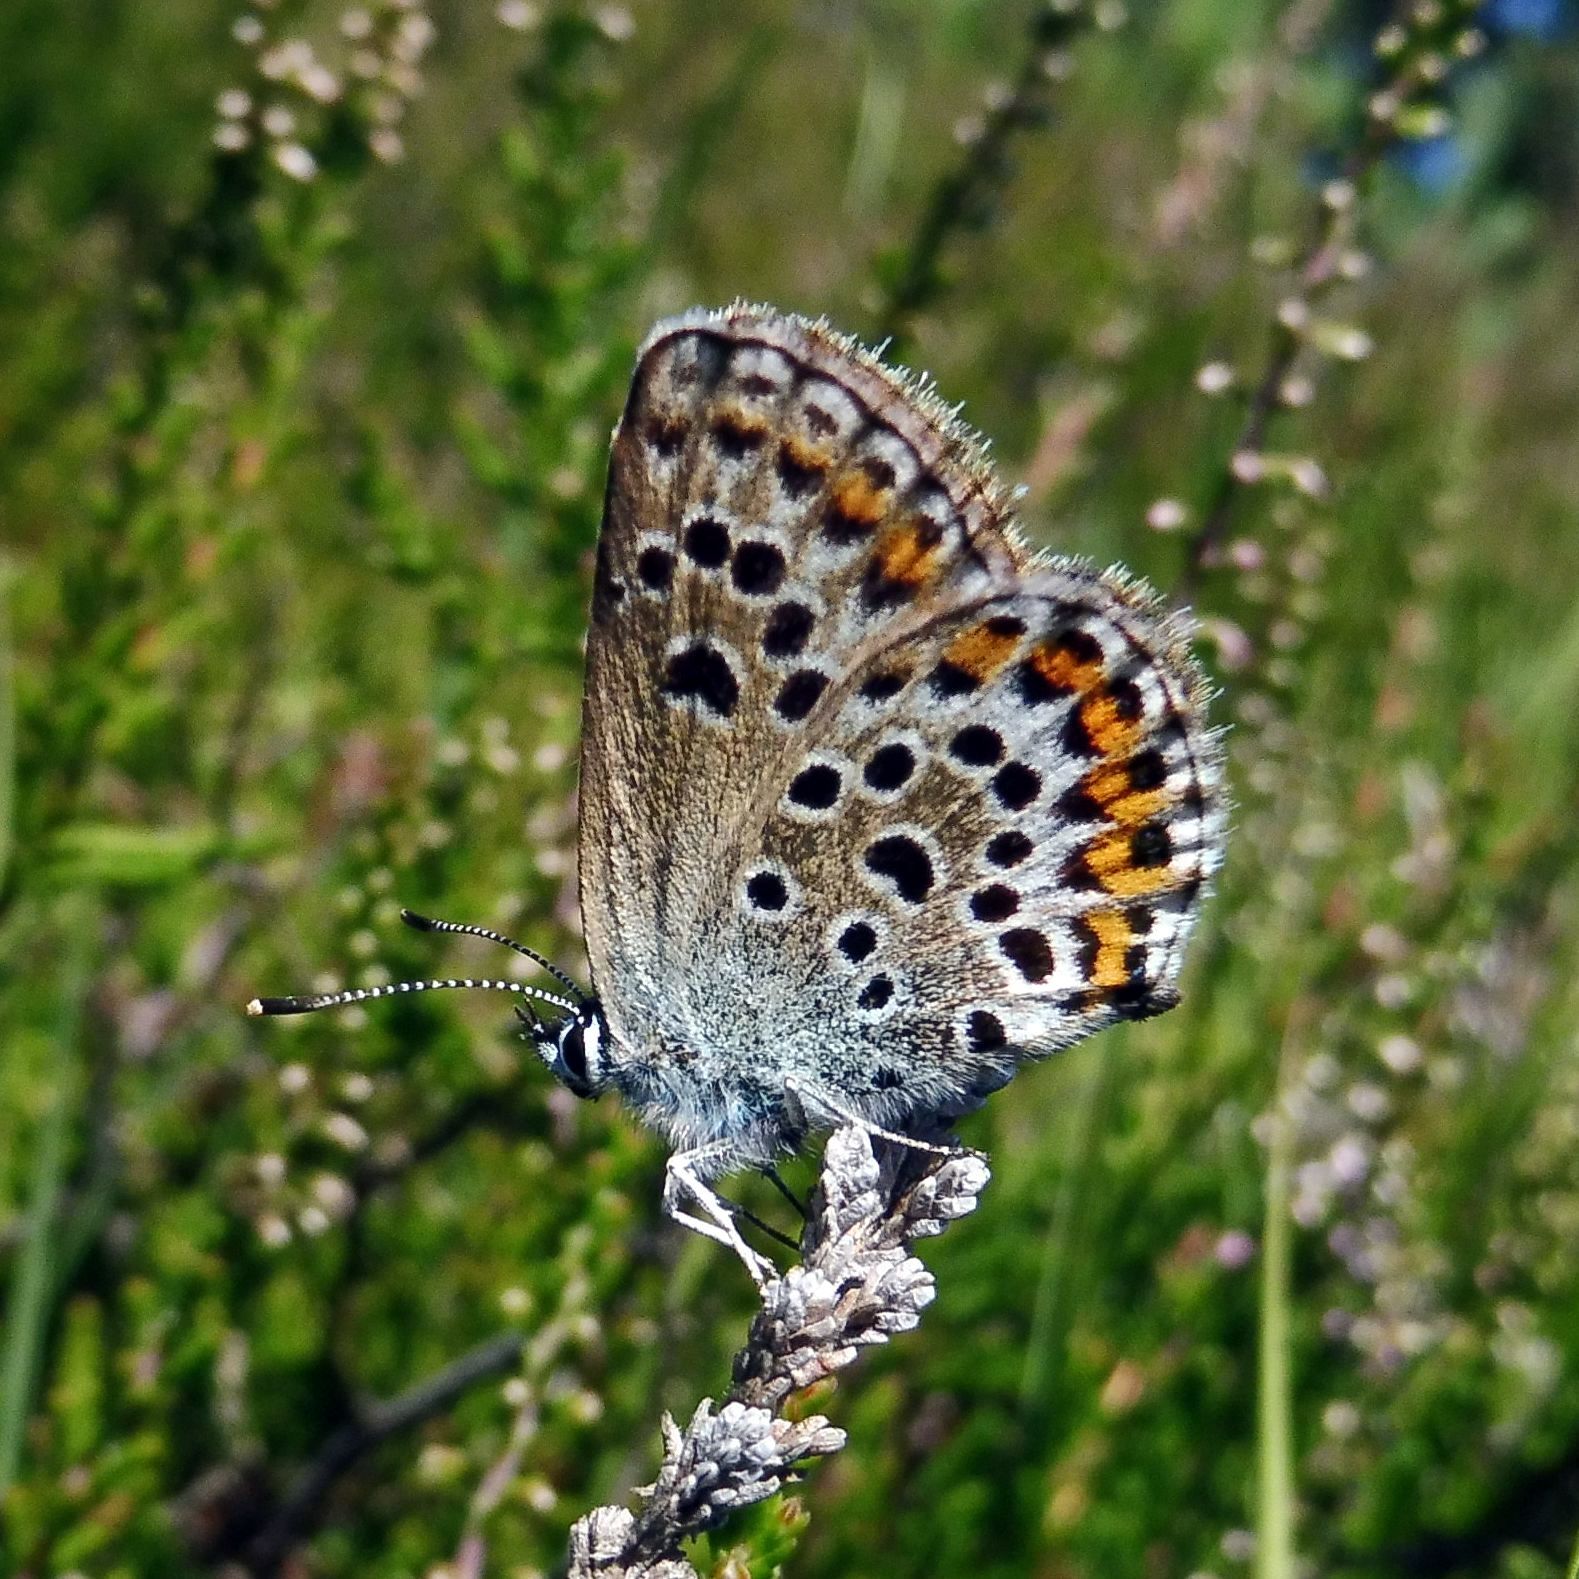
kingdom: Animalia
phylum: Arthropoda
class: Insecta
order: Lepidoptera
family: Lycaenidae
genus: Plebejus
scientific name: Plebejus argus
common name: Silver-studded blue
